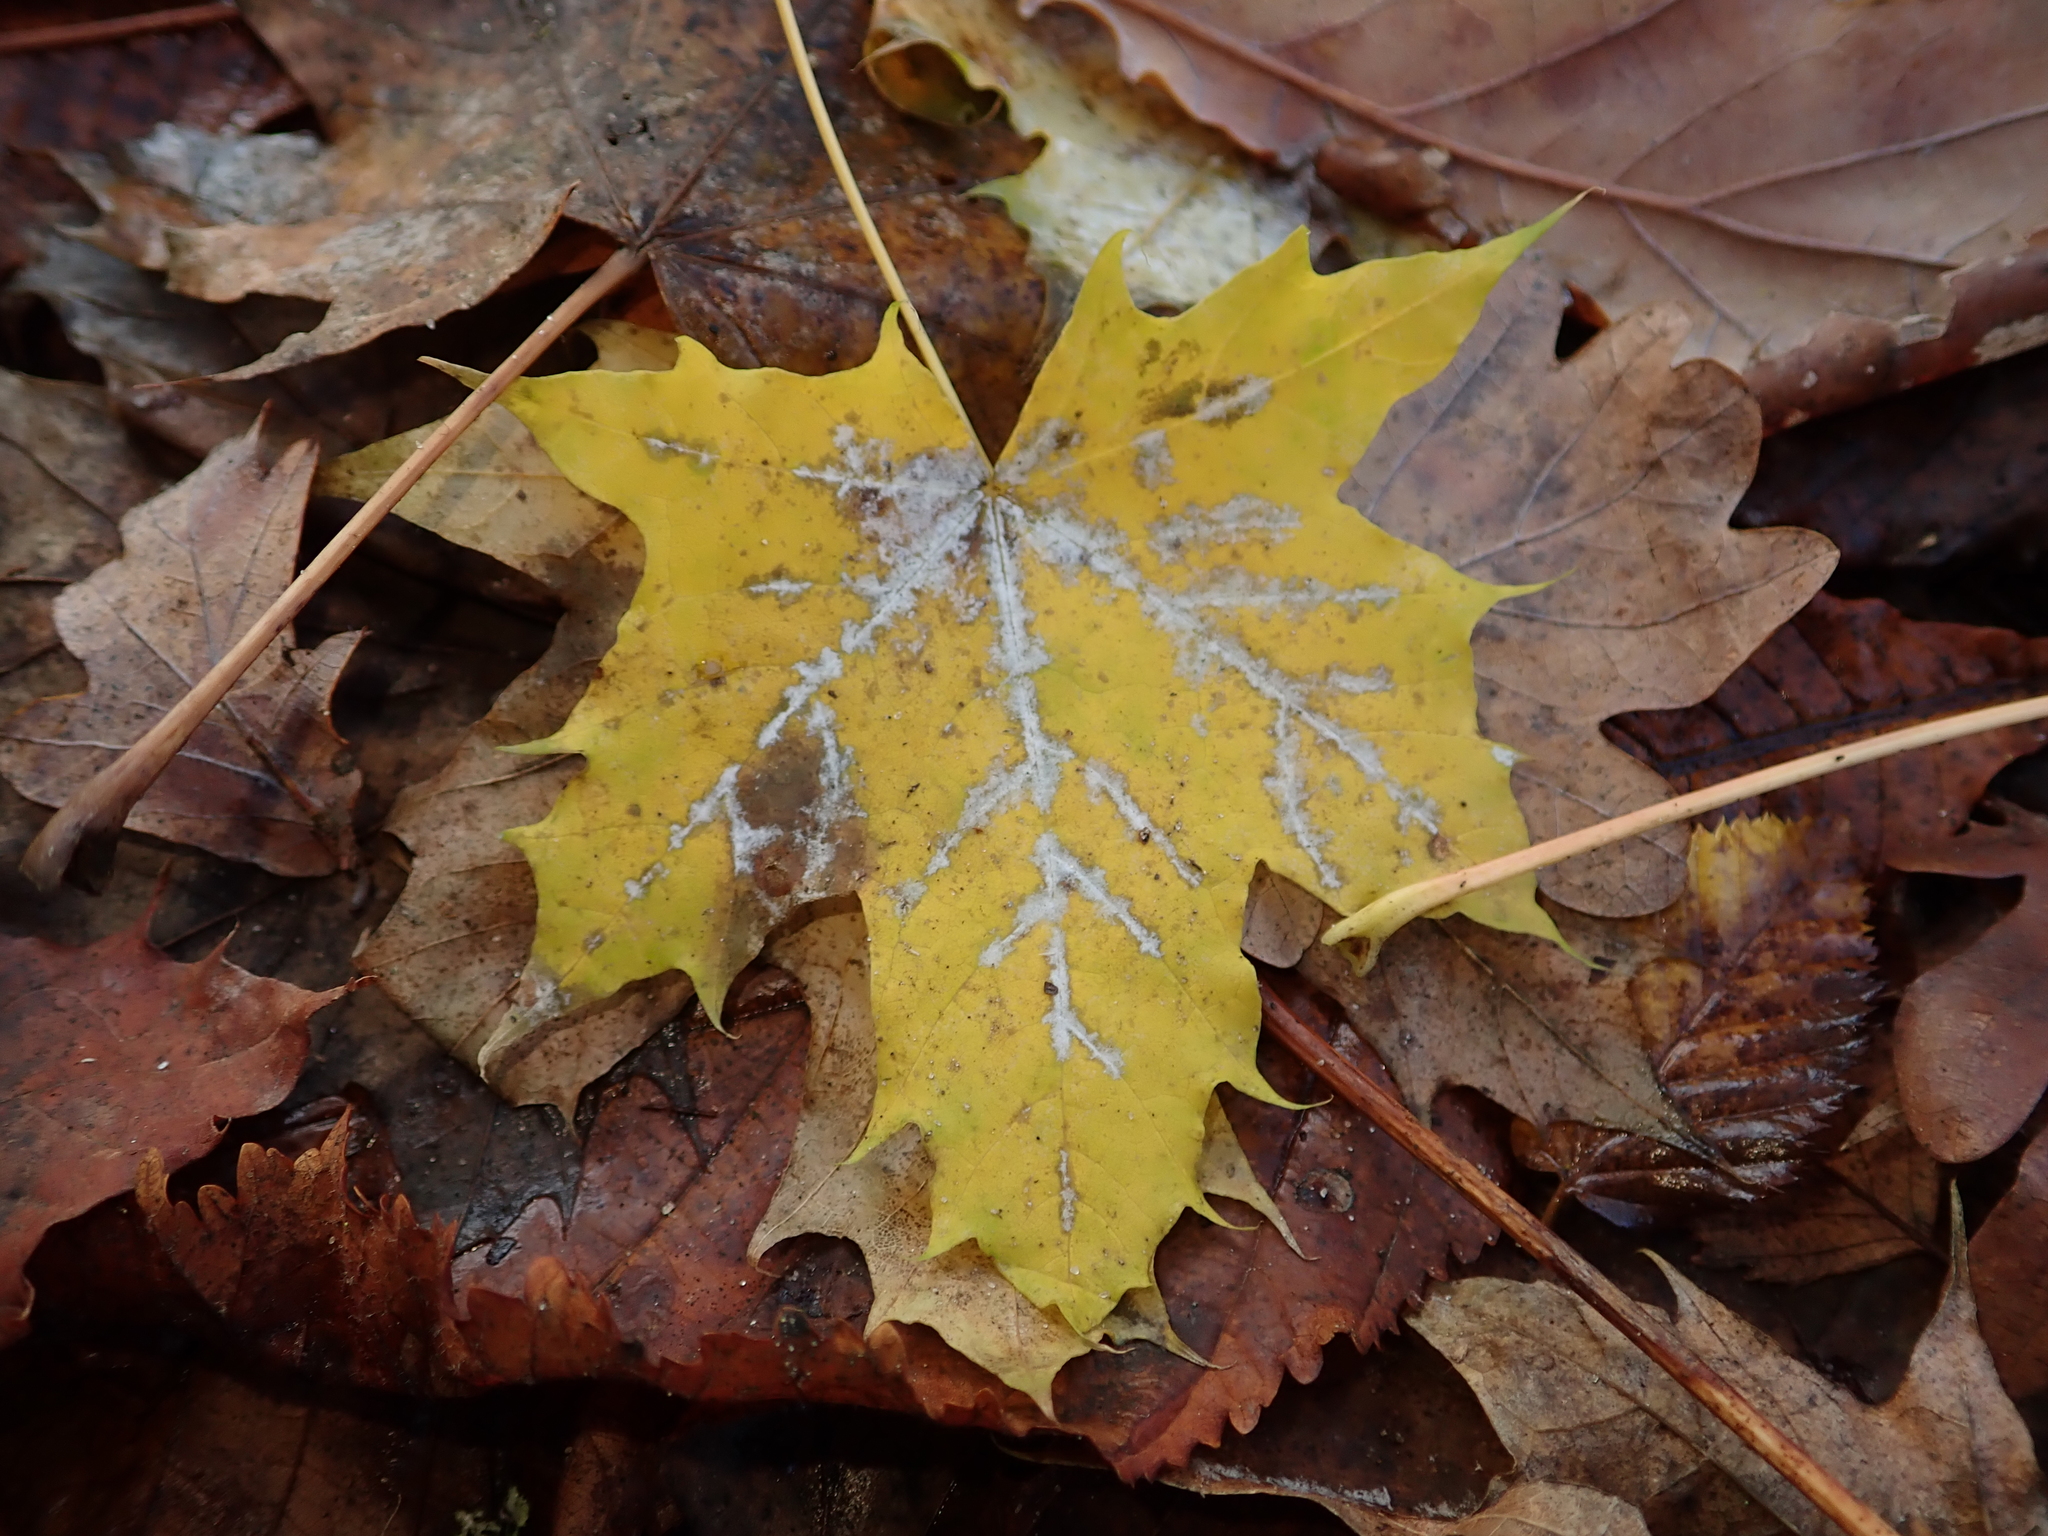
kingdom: Plantae
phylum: Tracheophyta
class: Magnoliopsida
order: Sapindales
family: Sapindaceae
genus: Acer
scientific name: Acer platanoides
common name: Norway maple
